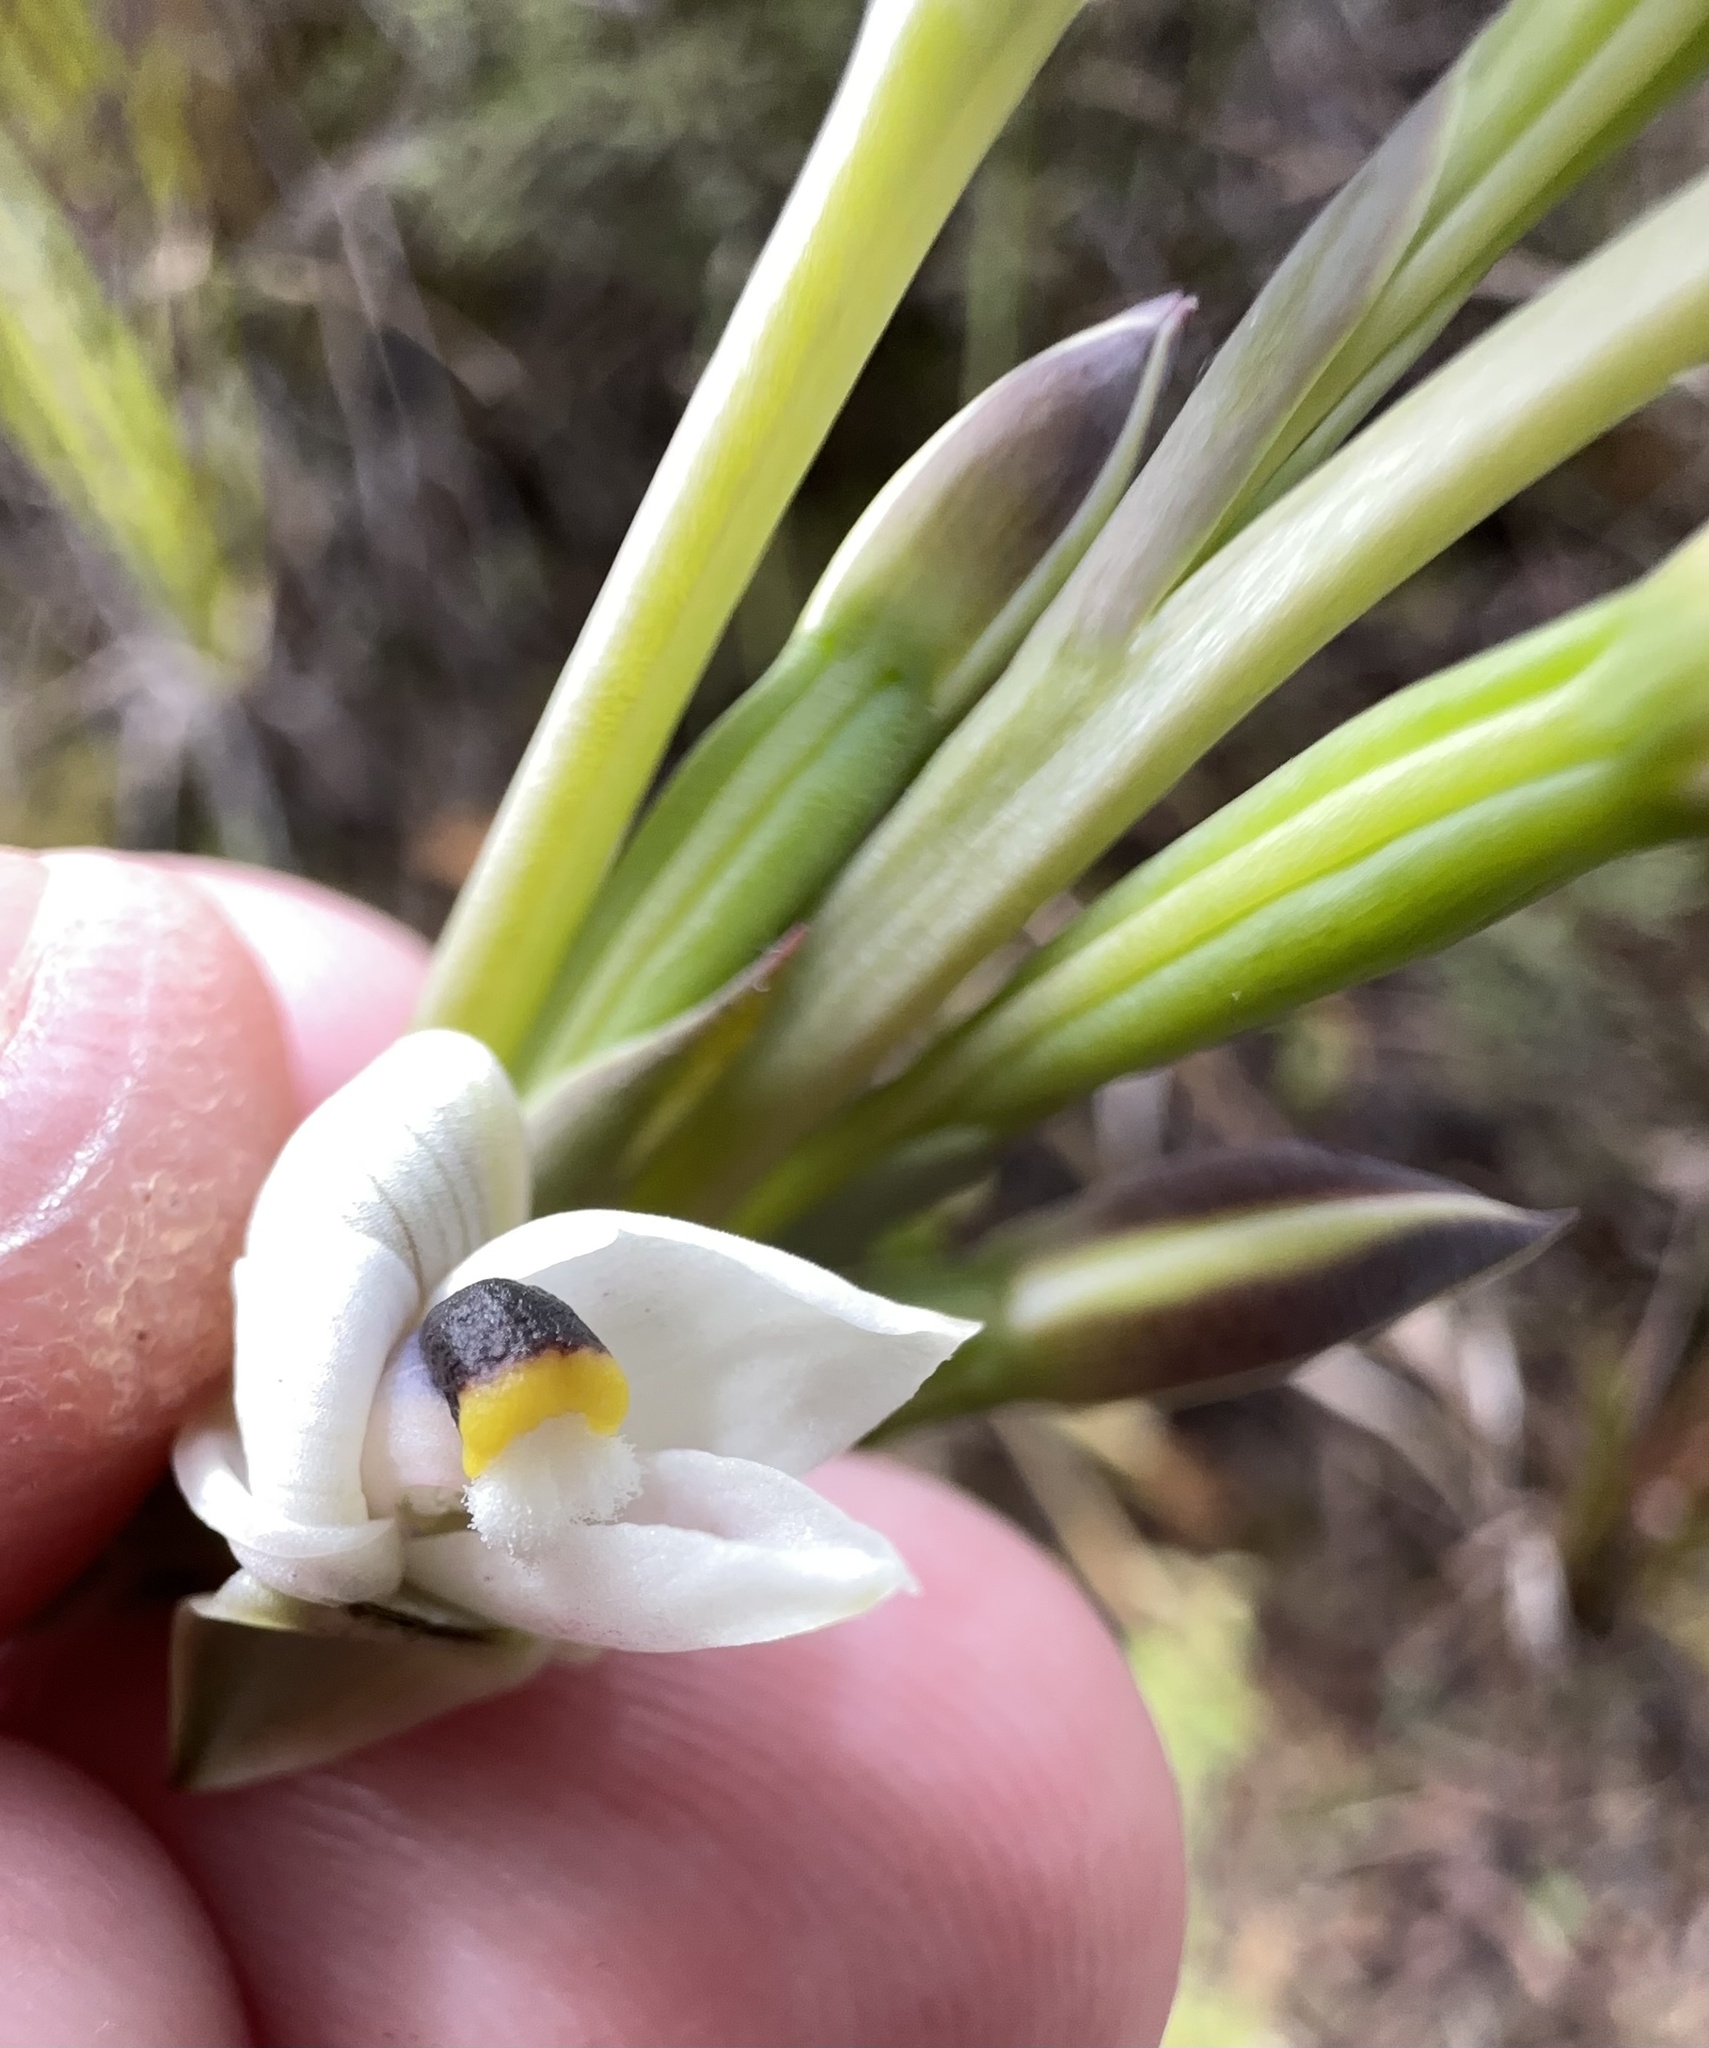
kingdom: Plantae
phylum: Tracheophyta
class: Liliopsida
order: Asparagales
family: Orchidaceae
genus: Thelymitra
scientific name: Thelymitra longifolia
